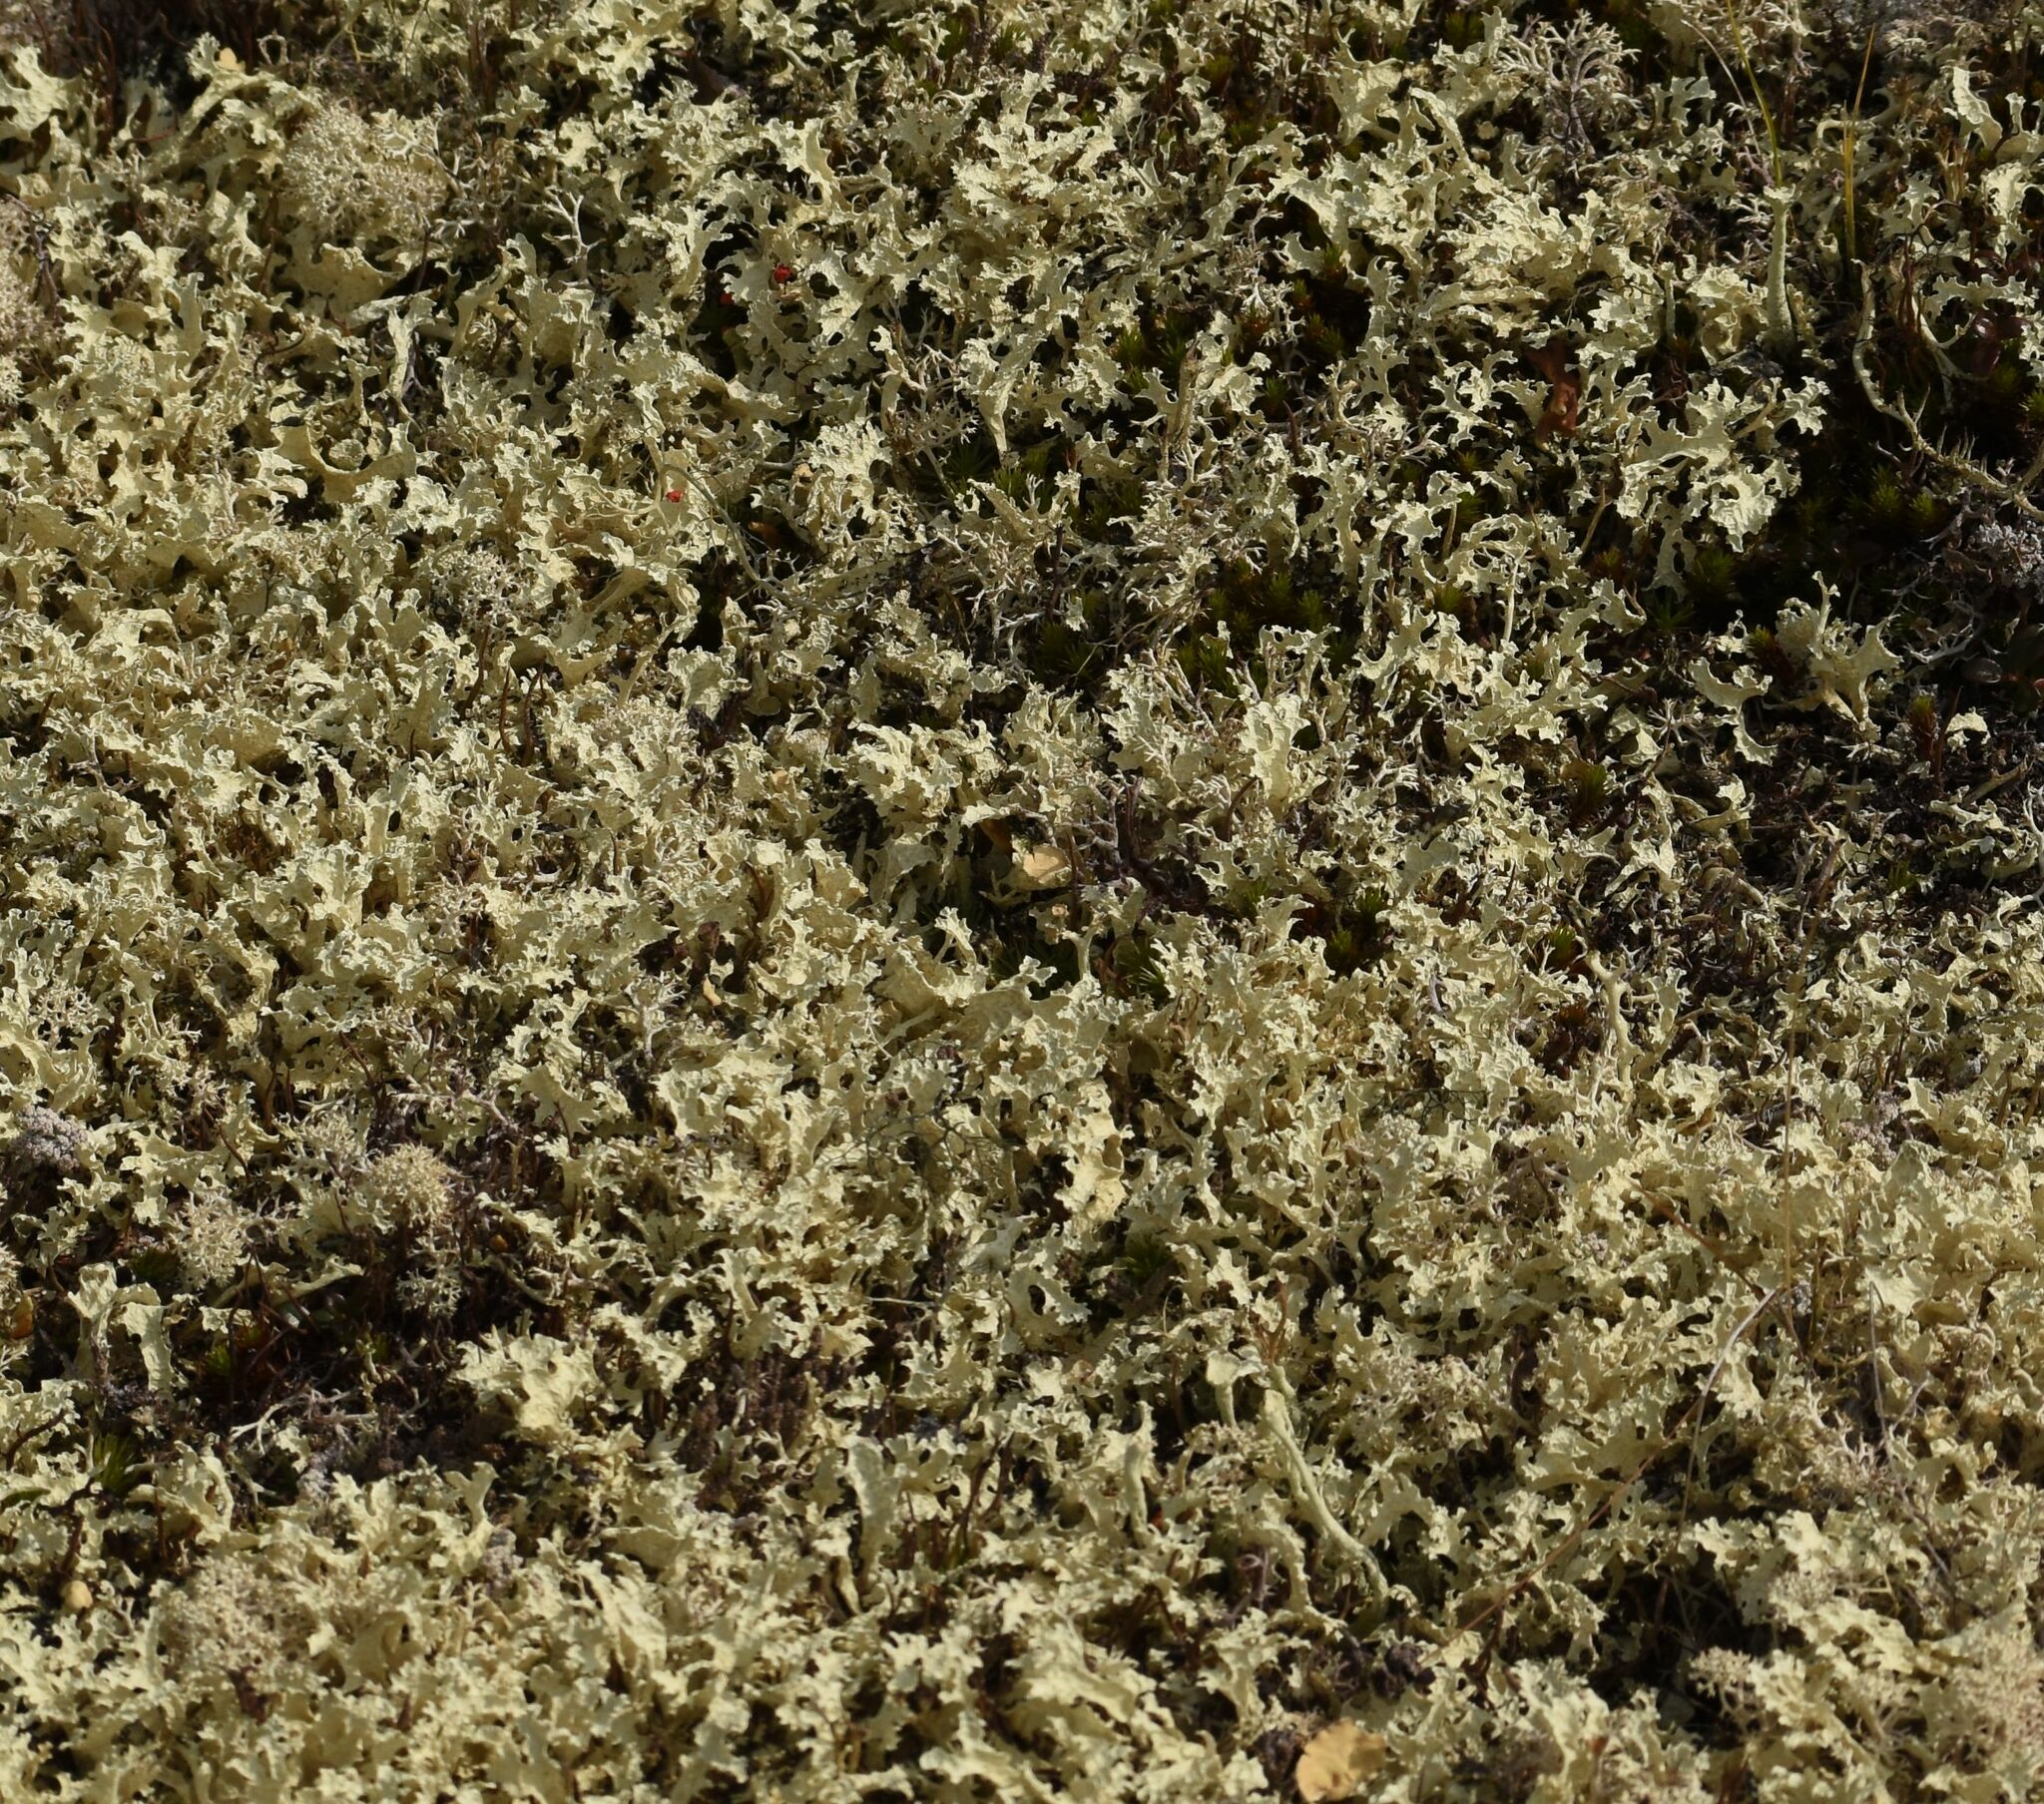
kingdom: Fungi
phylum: Ascomycota
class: Lecanoromycetes
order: Lecanorales
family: Parmeliaceae
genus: Nephromopsis
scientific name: Nephromopsis nivalis
